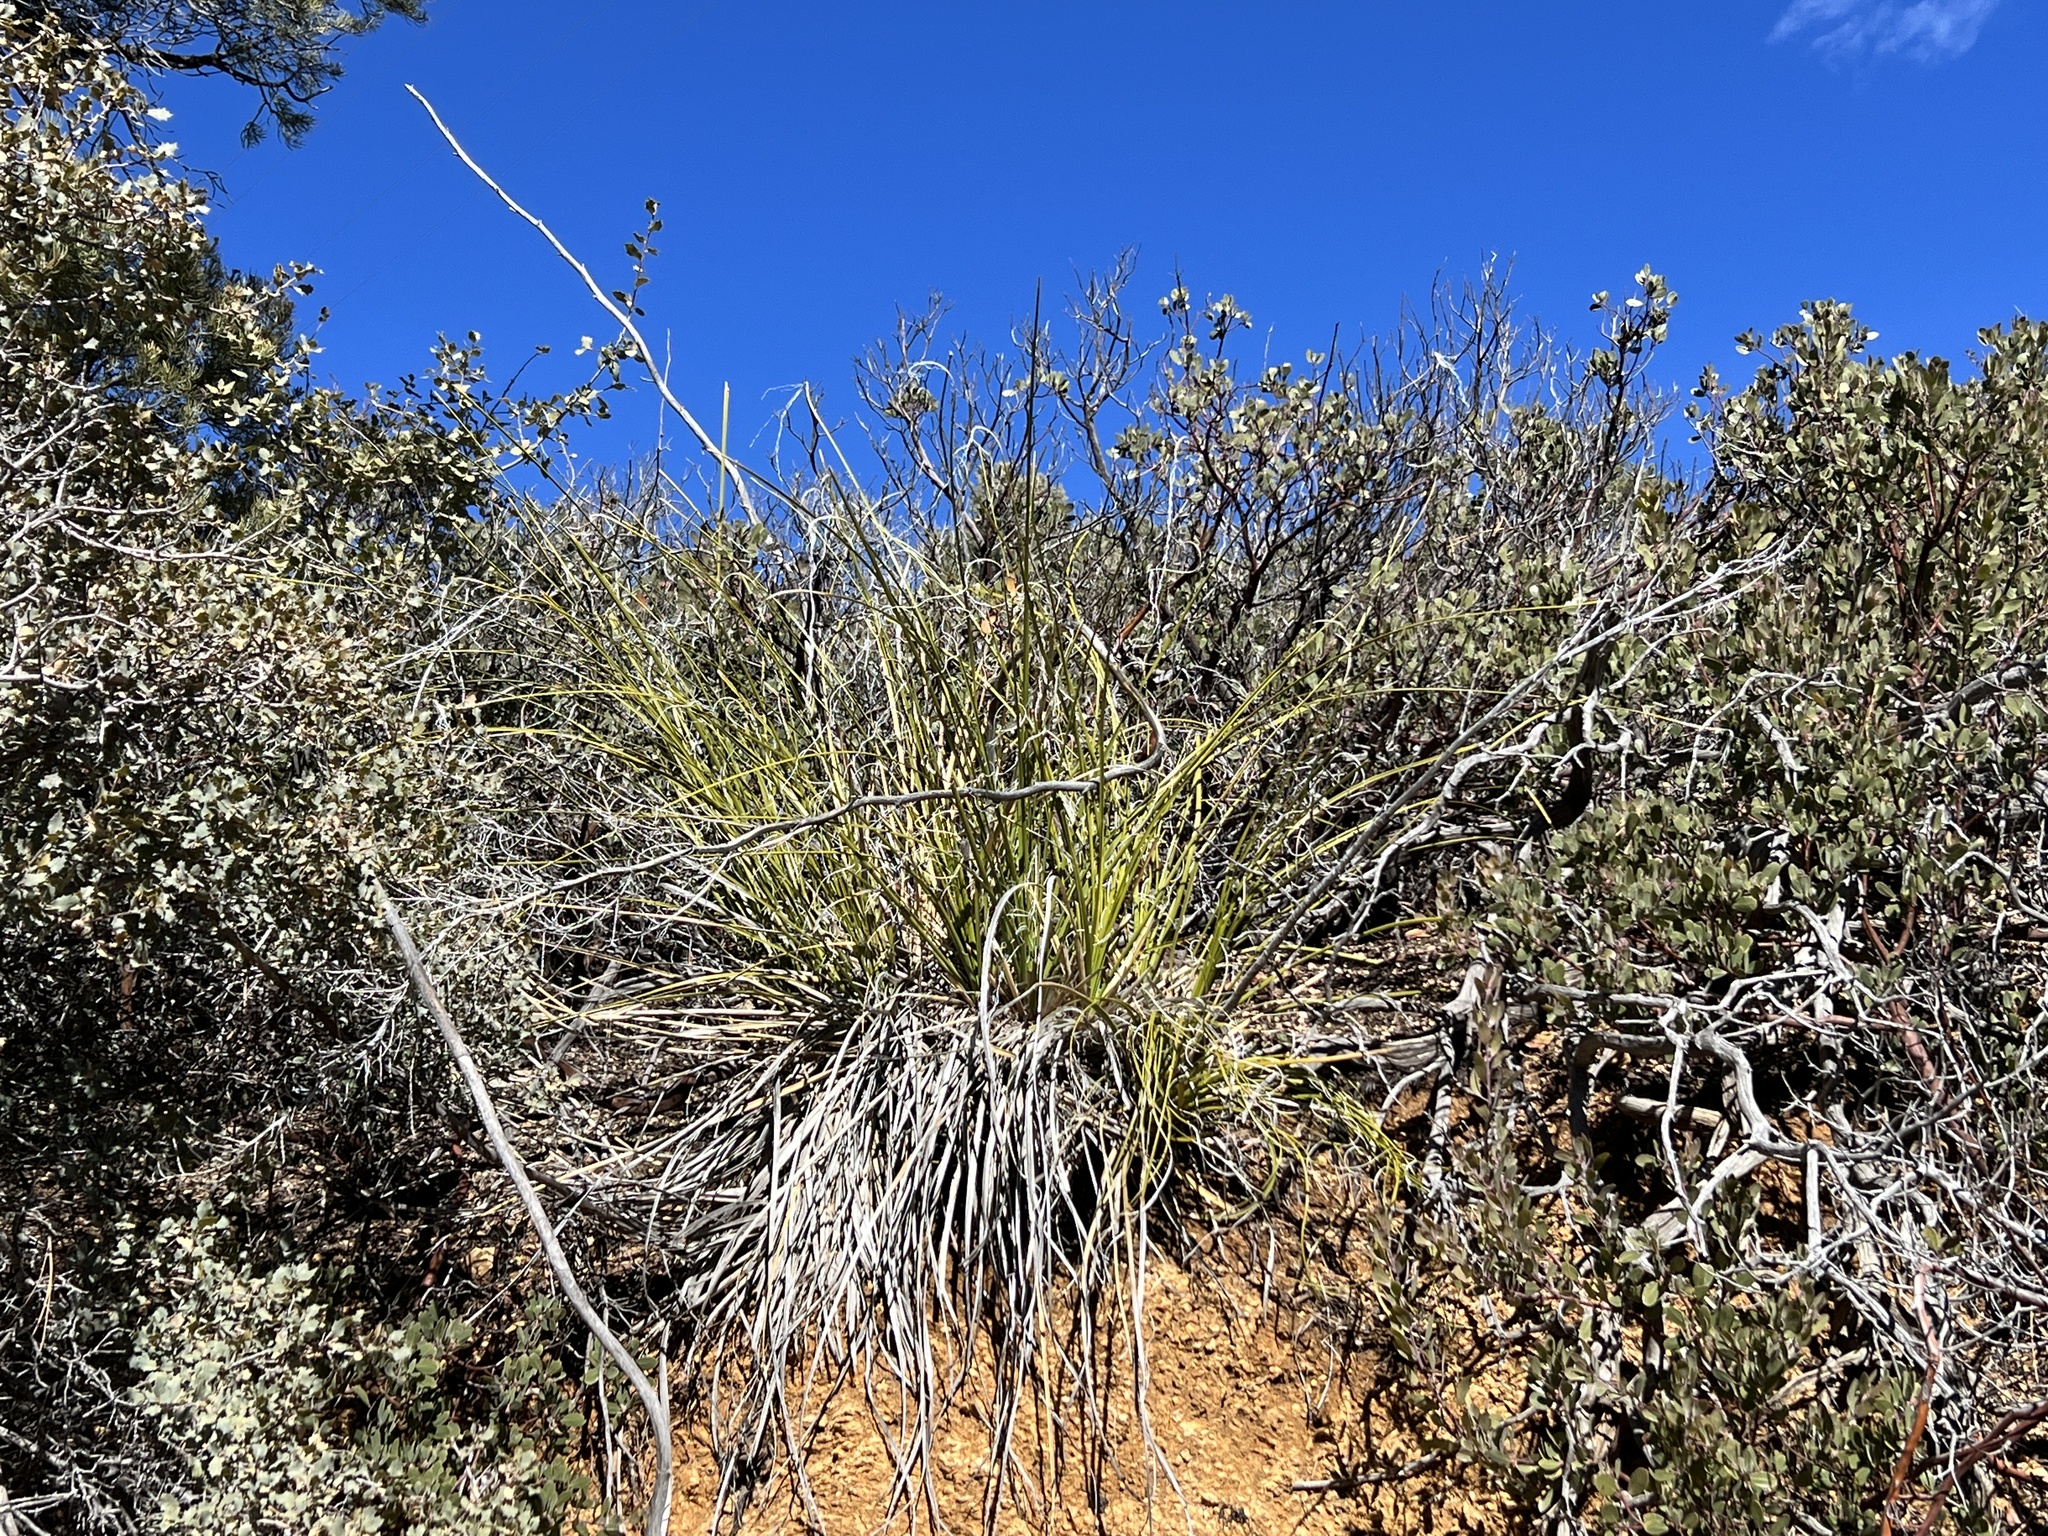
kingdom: Plantae
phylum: Tracheophyta
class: Liliopsida
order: Asparagales
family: Asparagaceae
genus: Nolina
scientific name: Nolina microcarpa
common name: Bear-grass
